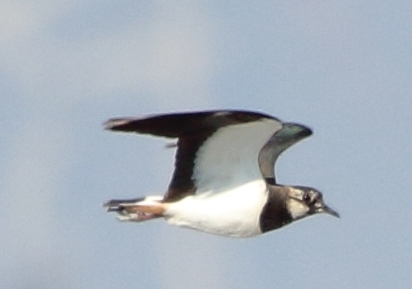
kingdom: Animalia
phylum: Chordata
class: Aves
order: Charadriiformes
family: Charadriidae
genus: Vanellus
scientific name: Vanellus vanellus
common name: Northern lapwing
